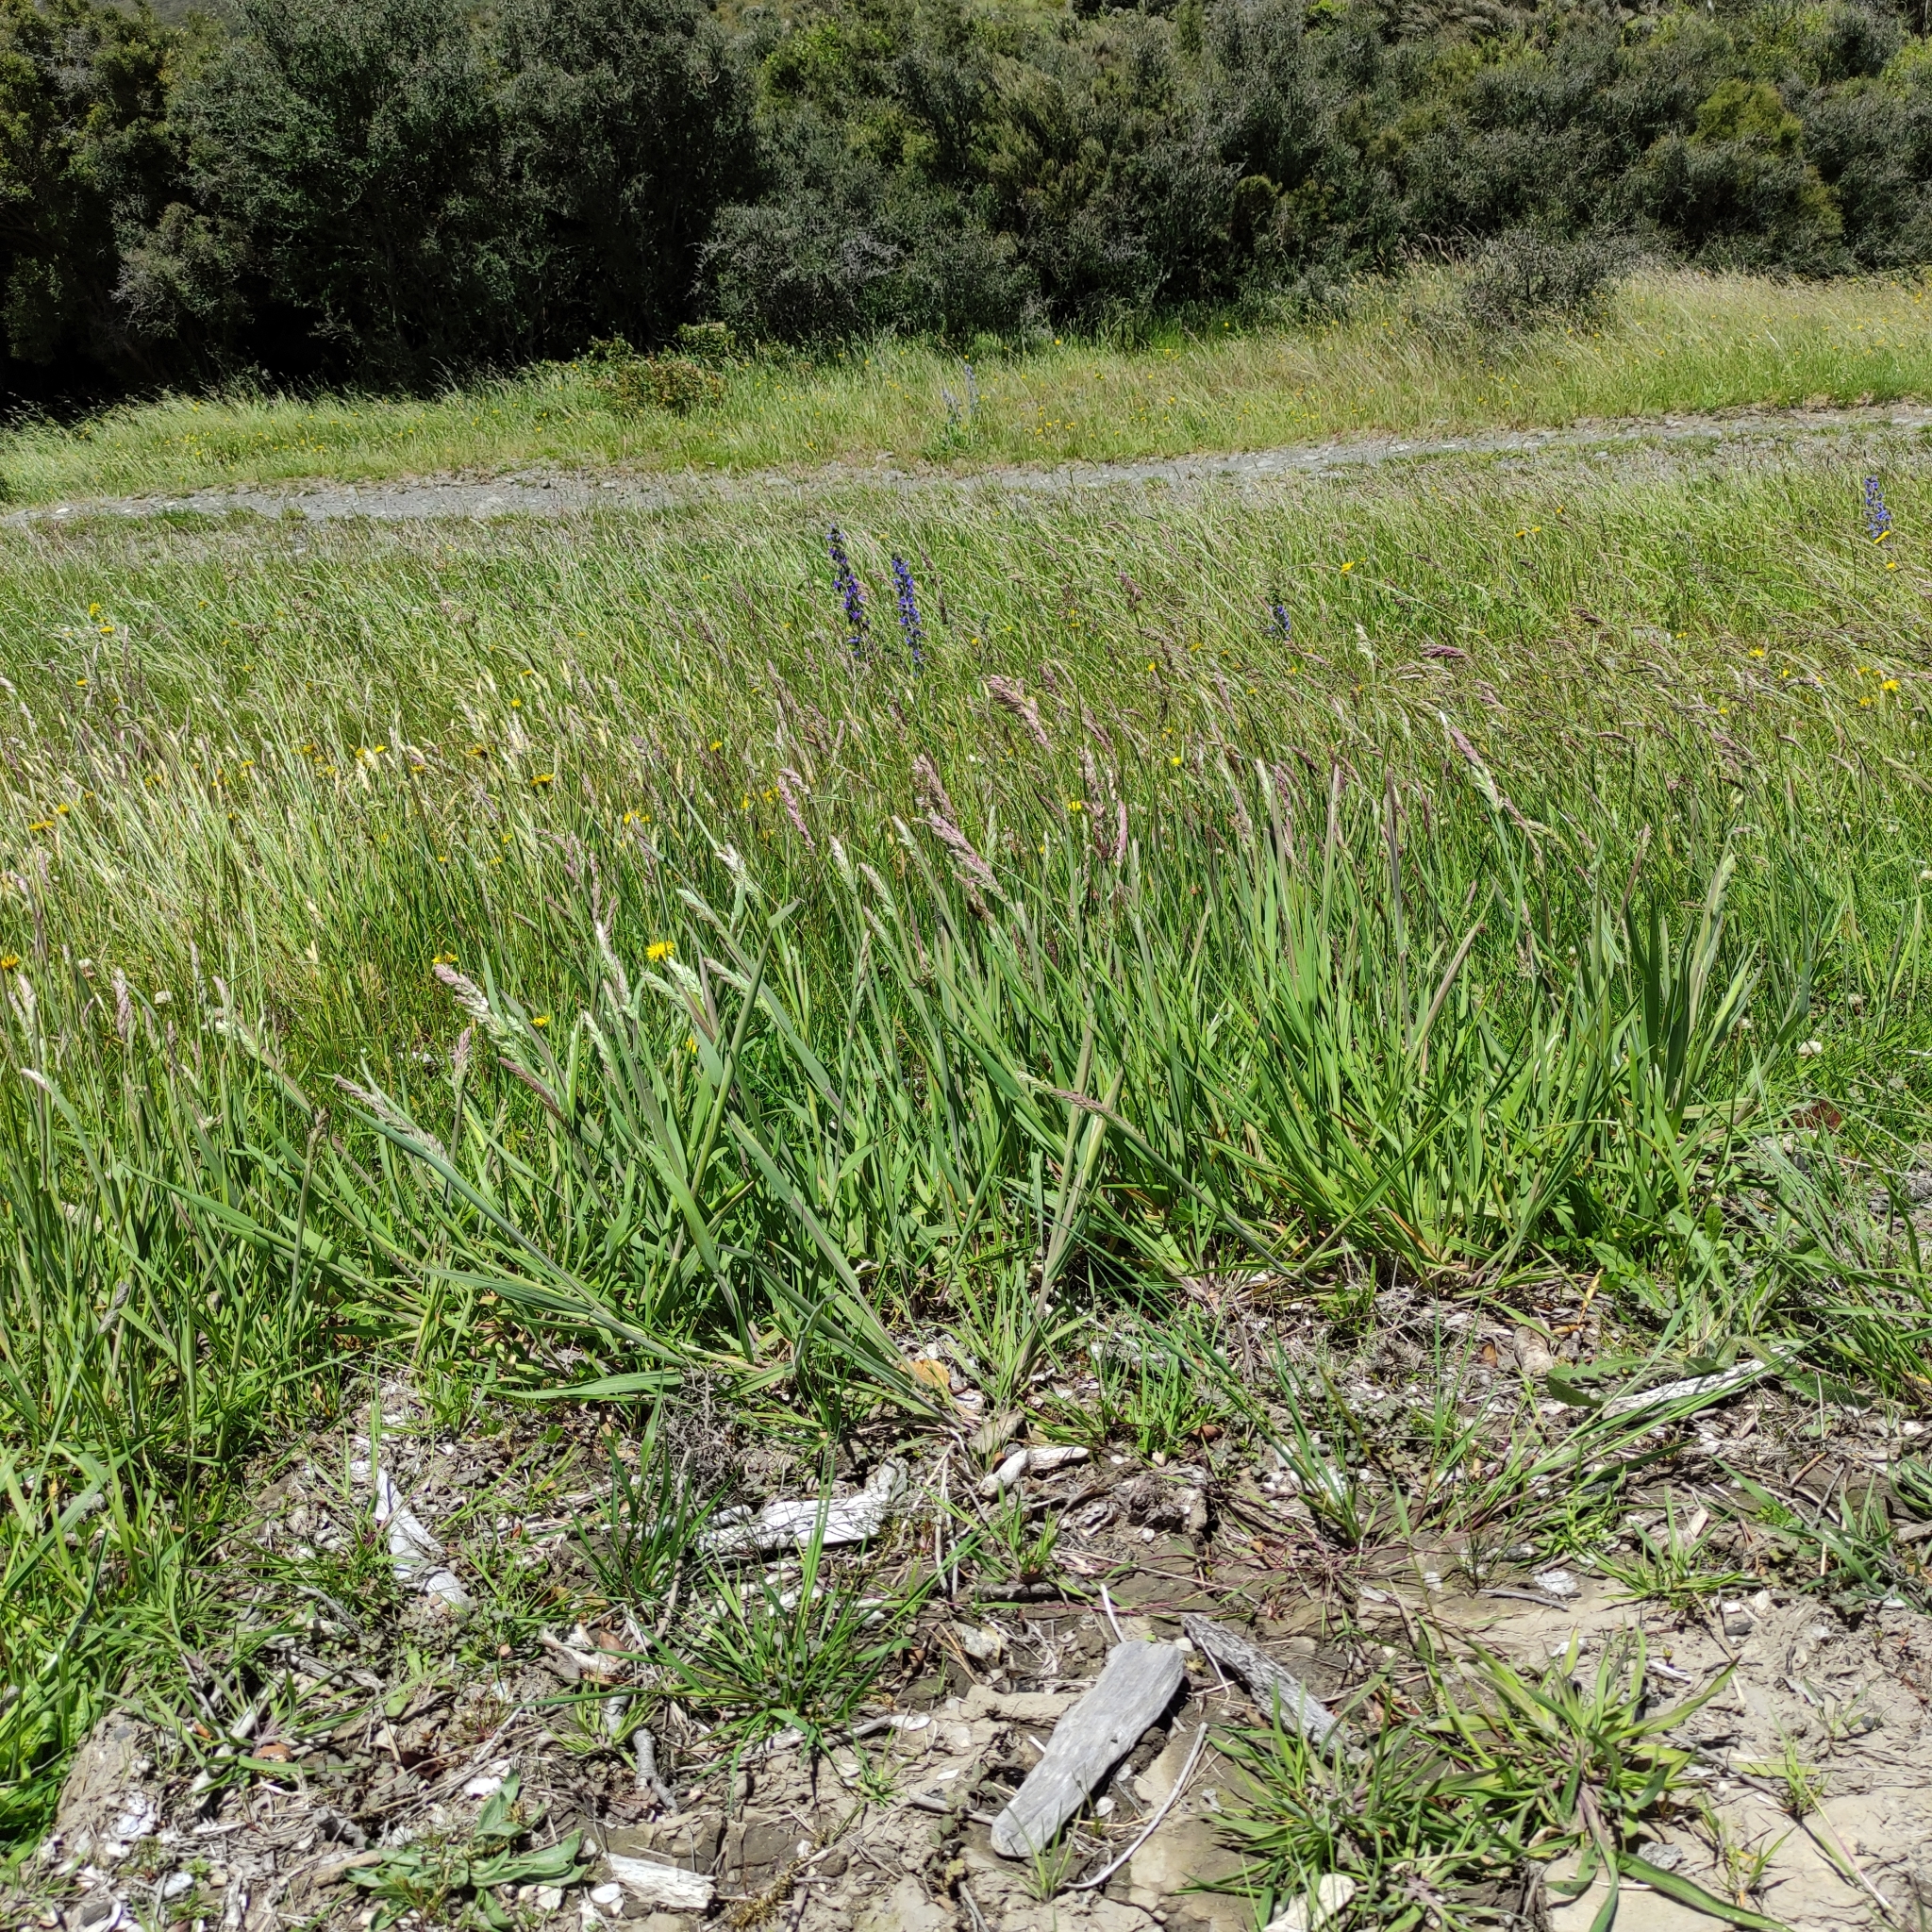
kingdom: Plantae
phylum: Tracheophyta
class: Liliopsida
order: Poales
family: Poaceae
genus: Holcus
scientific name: Holcus lanatus
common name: Yorkshire-fog
